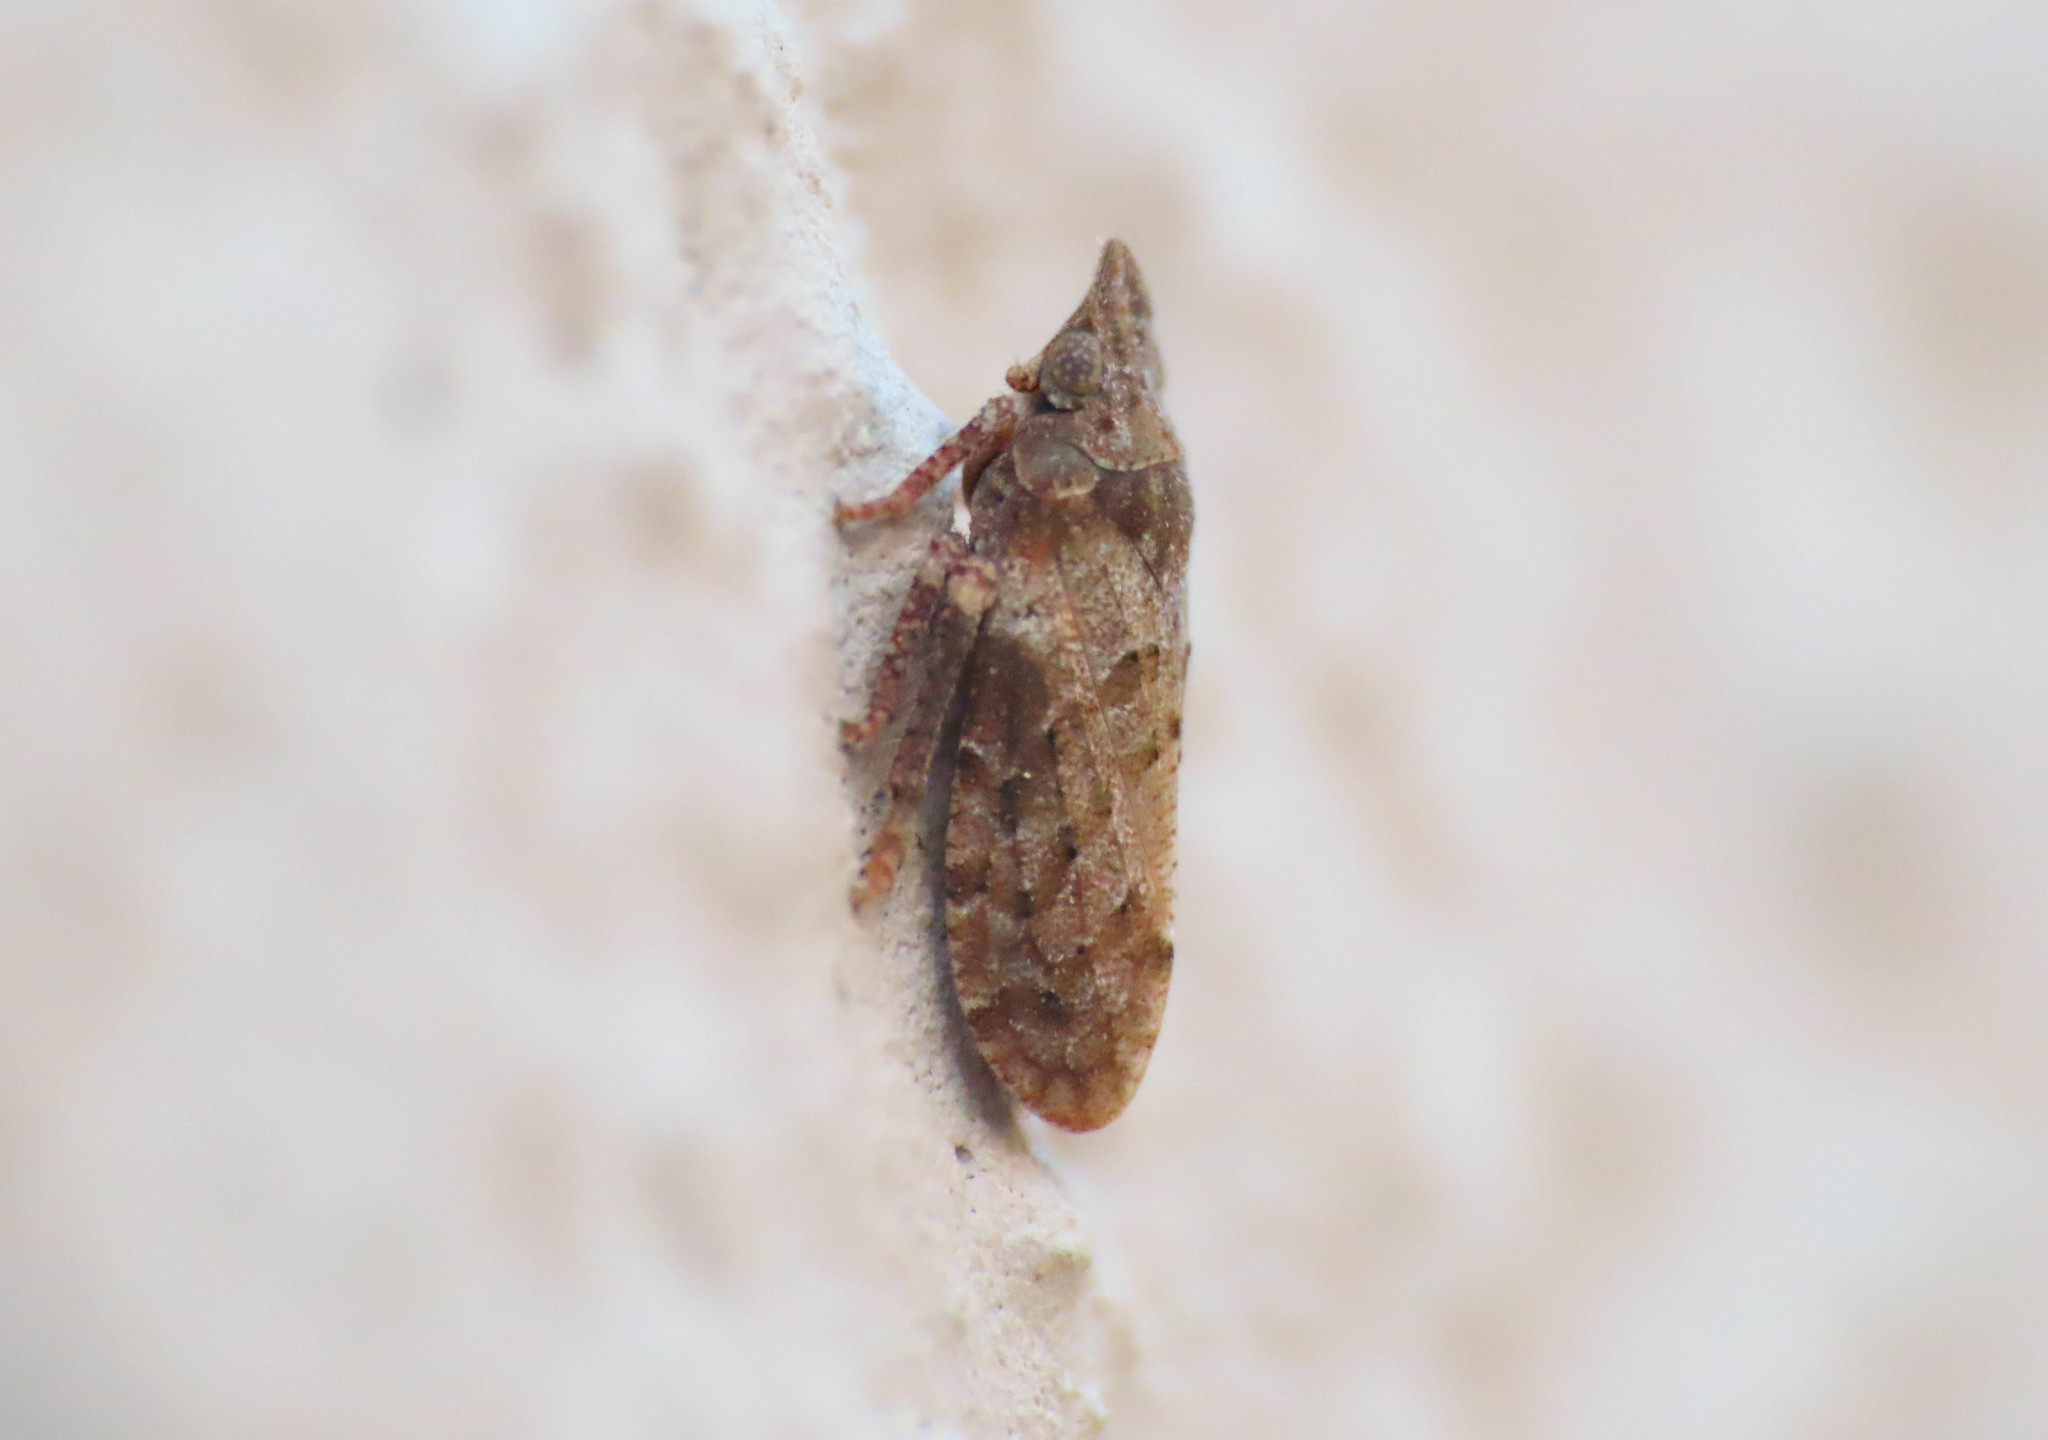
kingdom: Animalia
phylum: Arthropoda
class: Insecta
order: Hemiptera
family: Tettigometridae
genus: Tettigometra
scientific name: Tettigometra leucophaea
